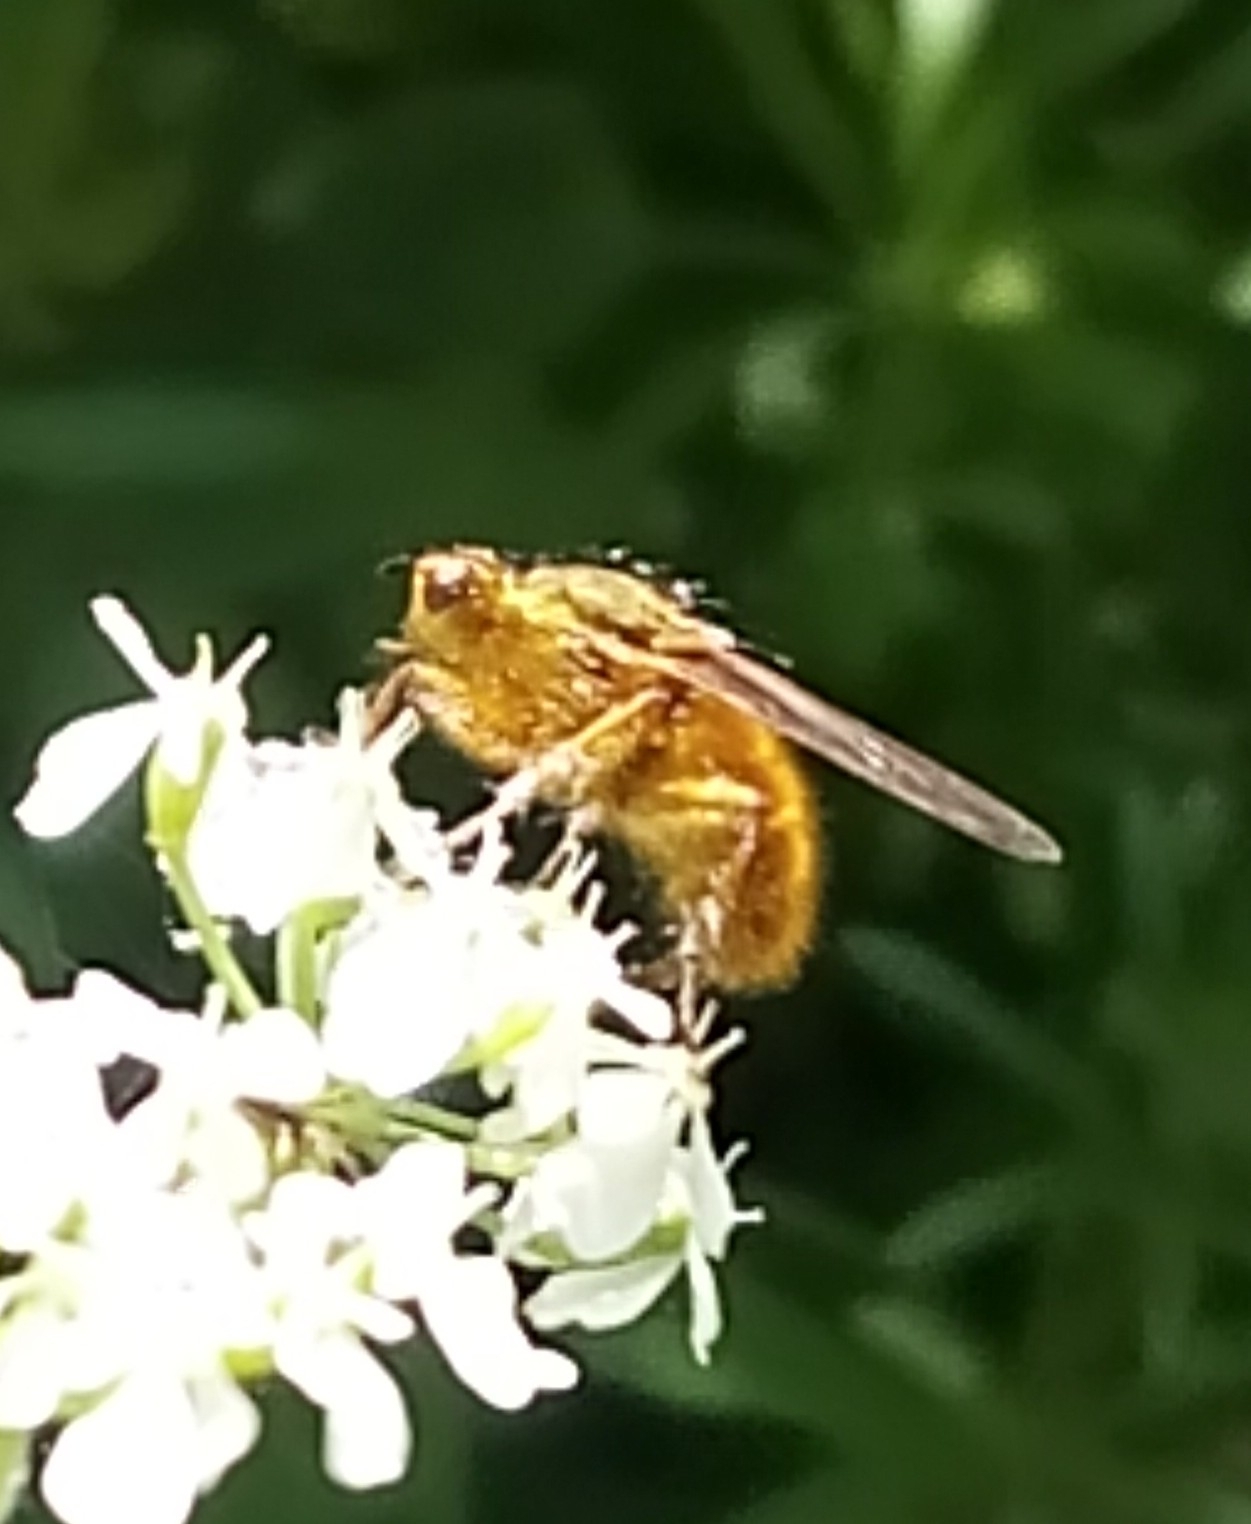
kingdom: Animalia
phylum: Arthropoda
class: Insecta
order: Diptera
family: Scathophagidae
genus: Scathophaga
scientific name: Scathophaga stercoraria
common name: Yellow dung fly
